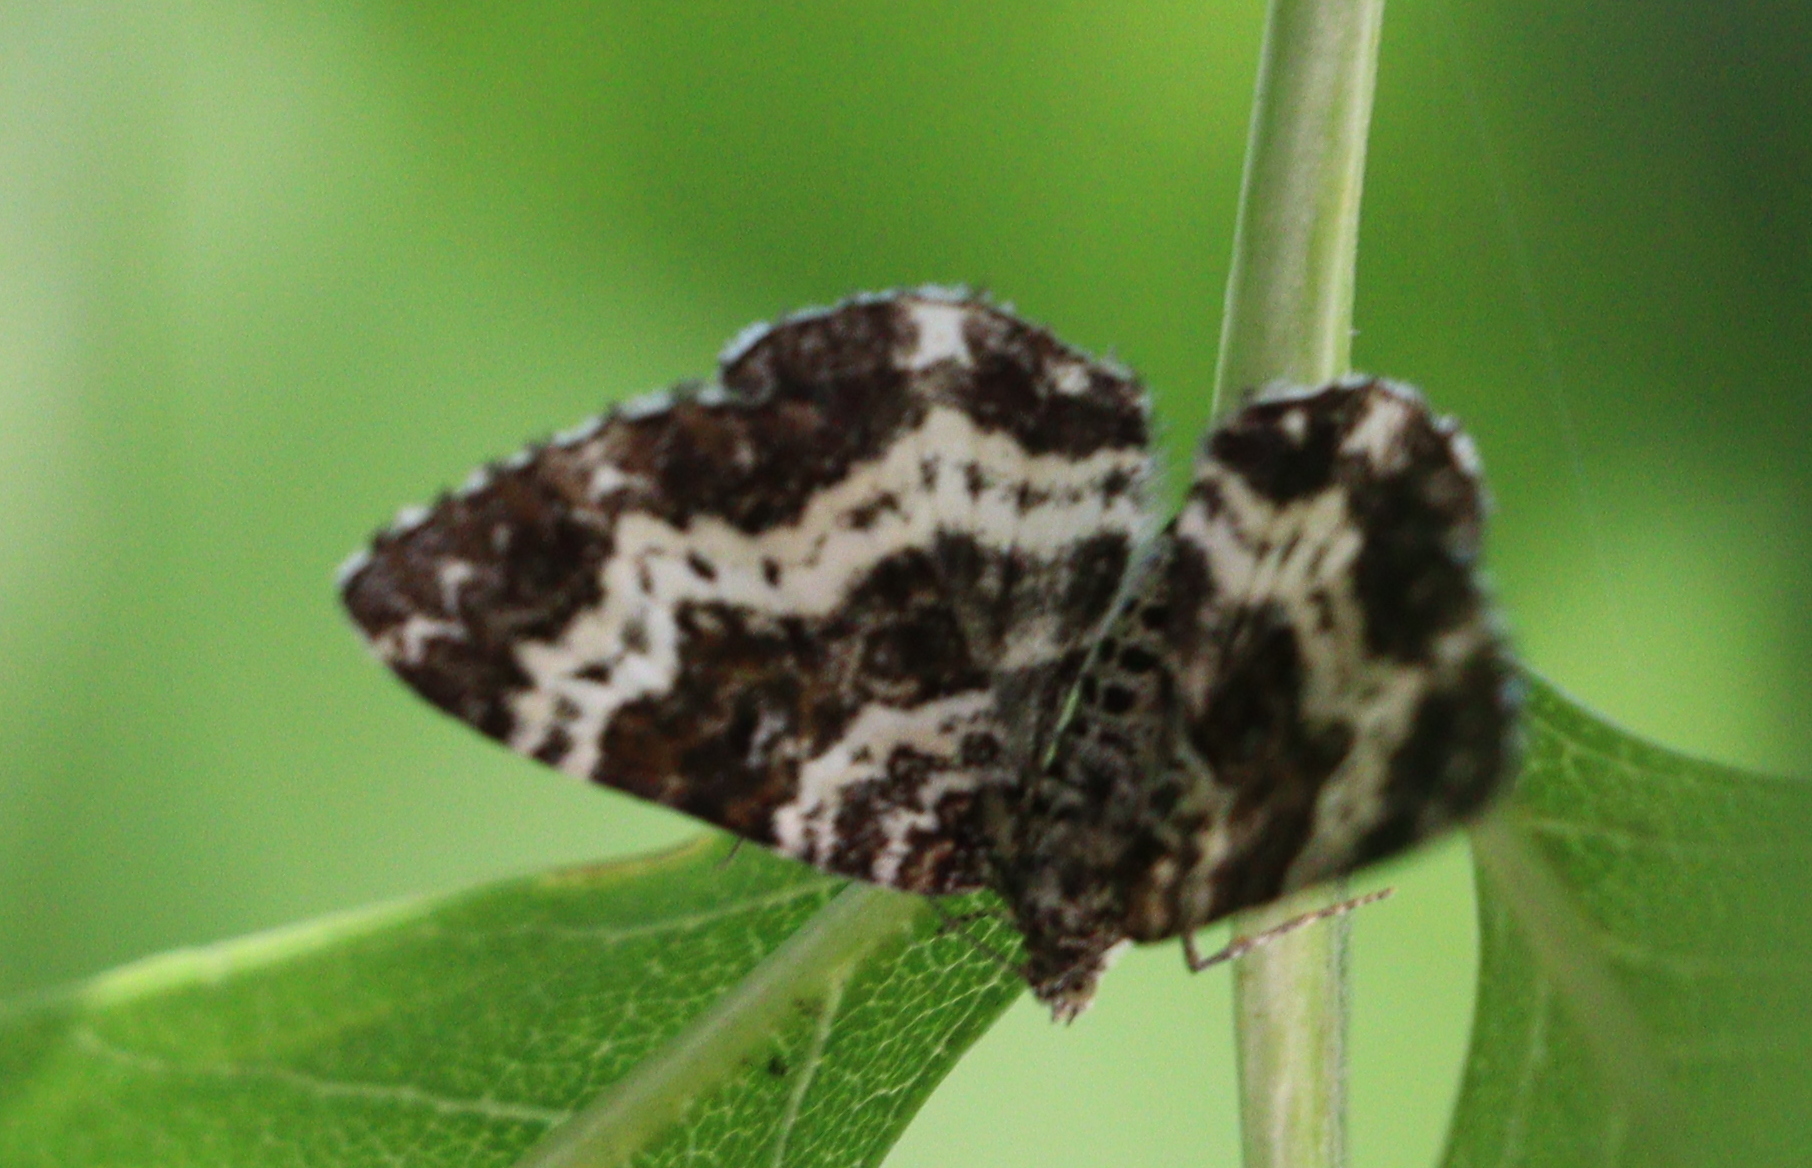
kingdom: Animalia
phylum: Arthropoda
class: Insecta
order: Lepidoptera
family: Geometridae
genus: Epirrhoe
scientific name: Epirrhoe tristata
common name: Small argent & sable
